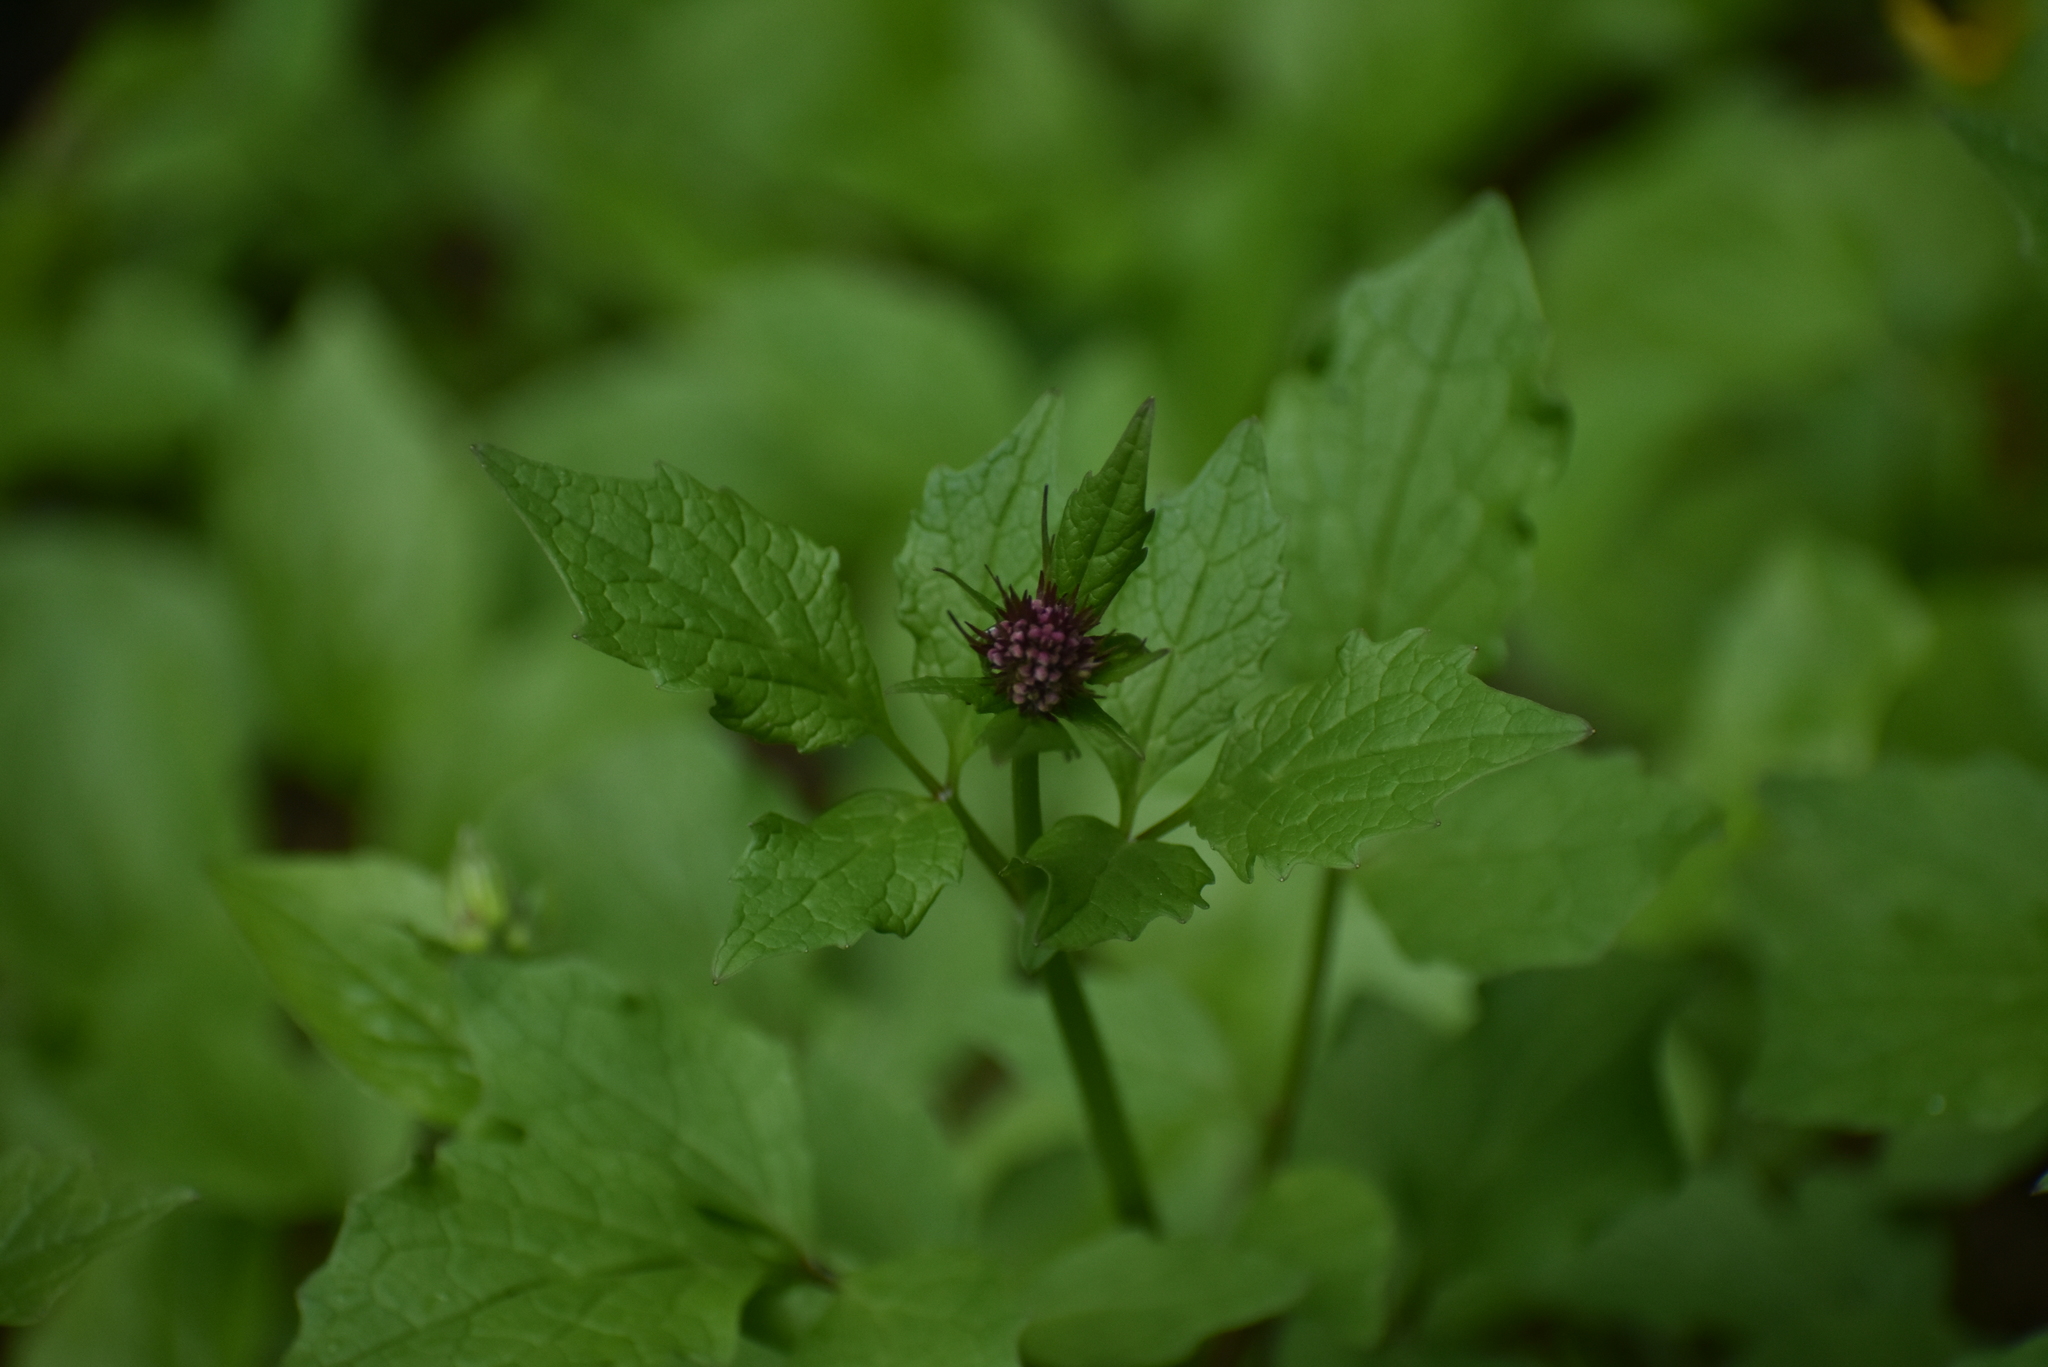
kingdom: Plantae
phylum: Tracheophyta
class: Magnoliopsida
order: Dipsacales
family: Caprifoliaceae
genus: Valeriana
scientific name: Valeriana sitchensis
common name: Pacific valerian
